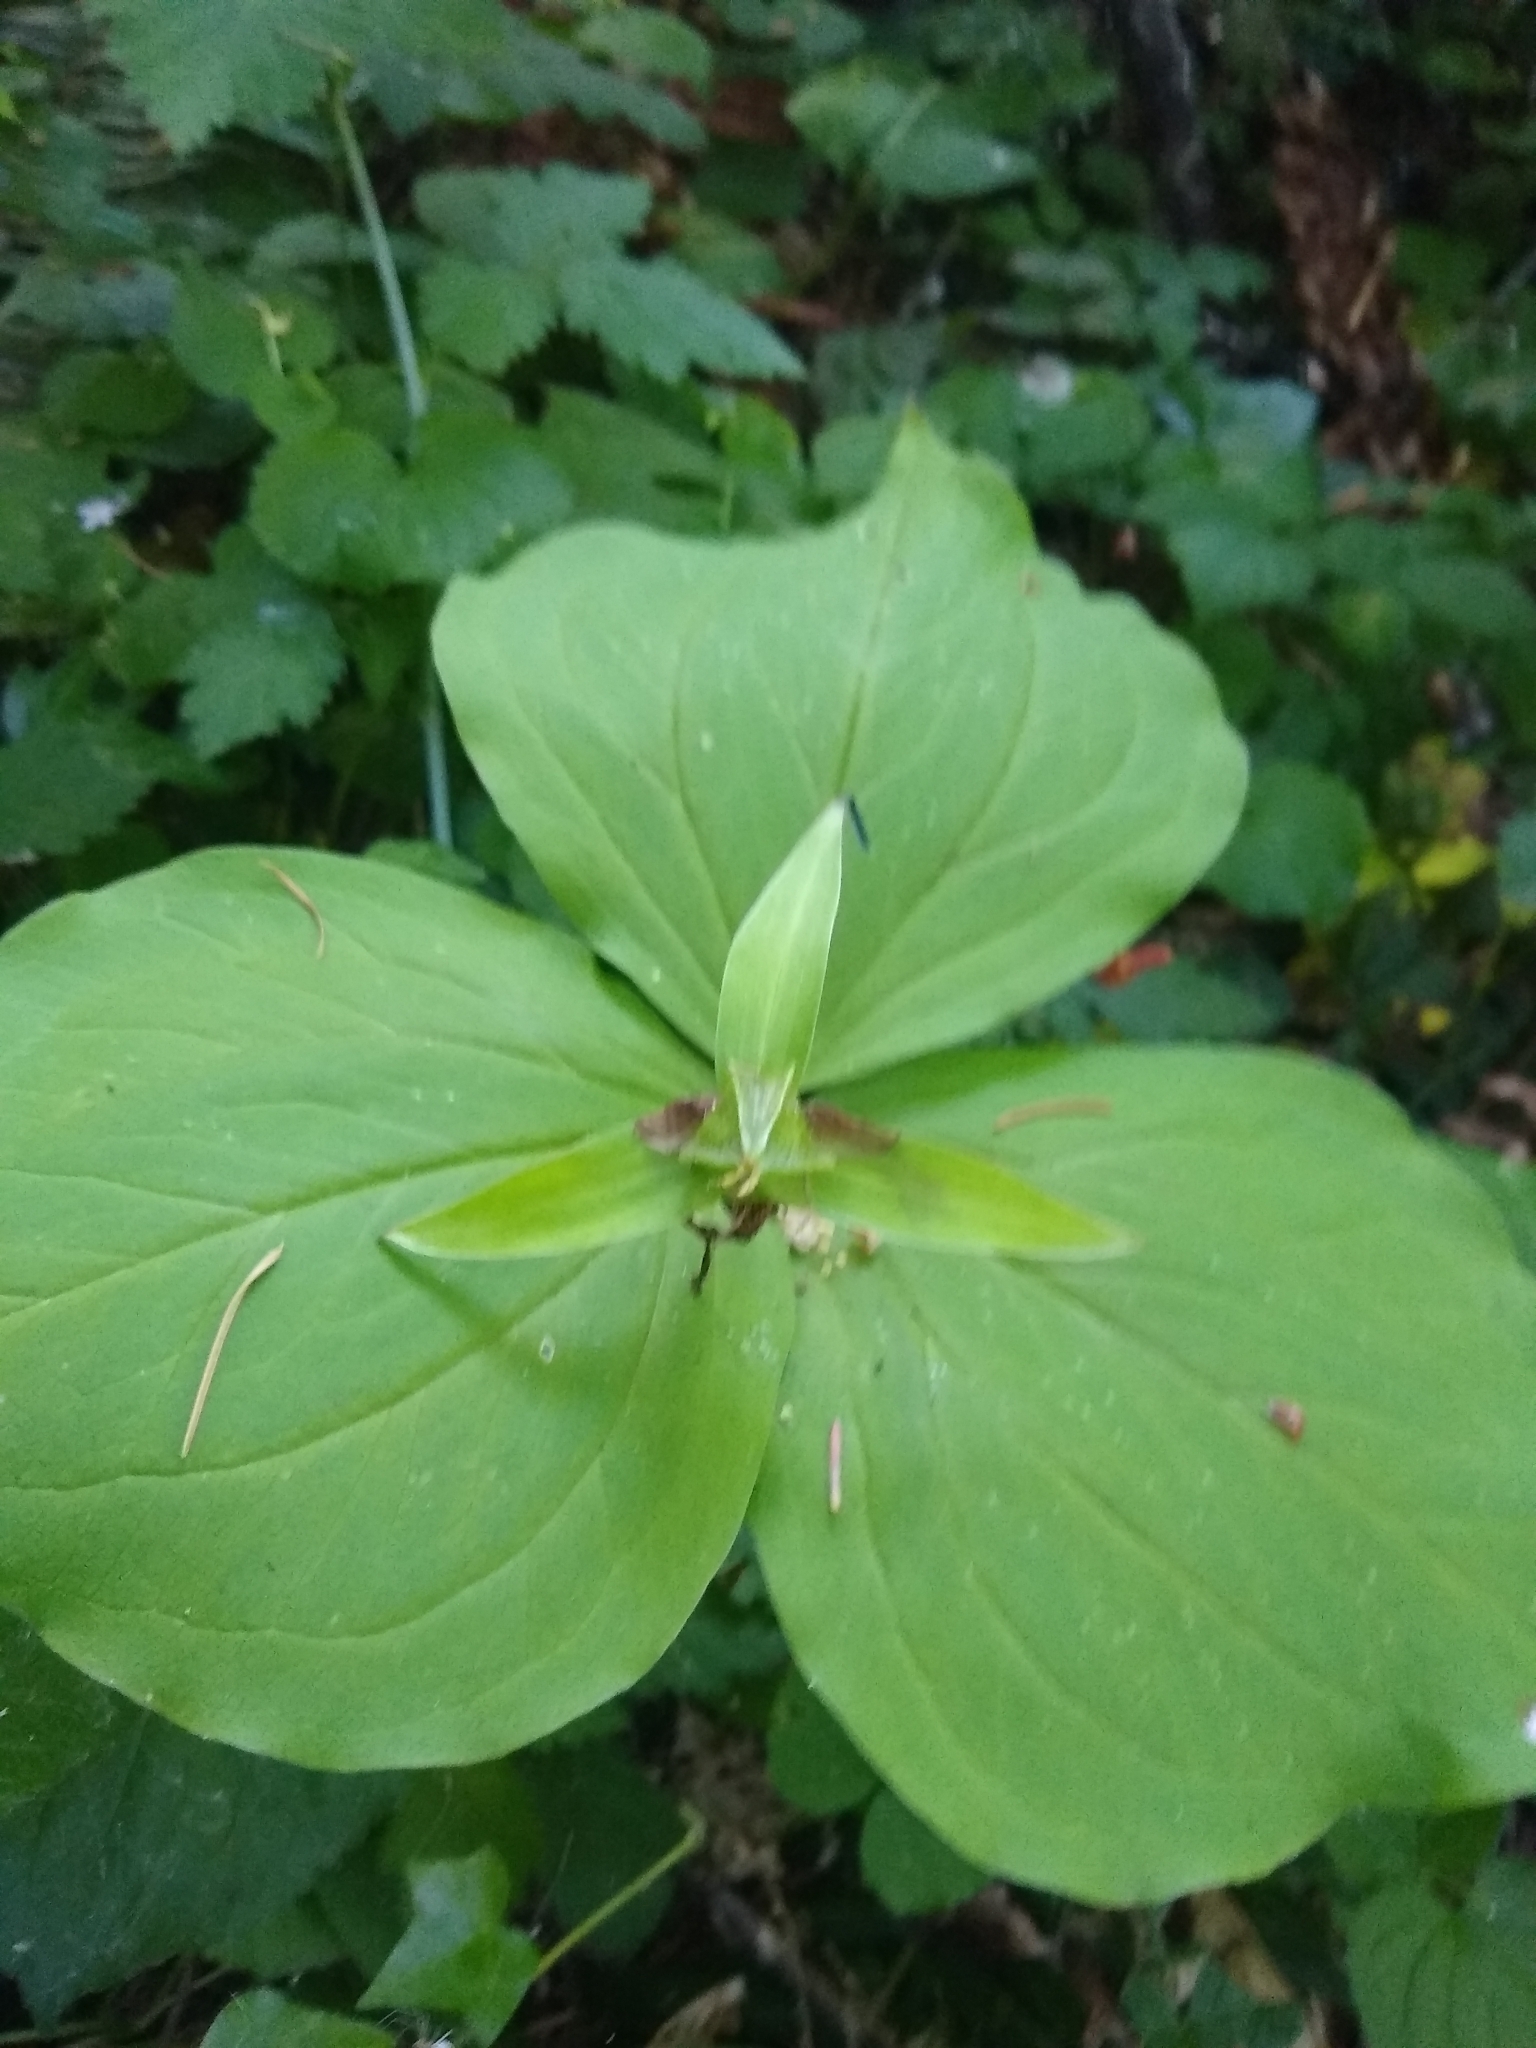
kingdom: Plantae
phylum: Tracheophyta
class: Liliopsida
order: Liliales
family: Melanthiaceae
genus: Trillium
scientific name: Trillium ovatum
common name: Pacific trillium
